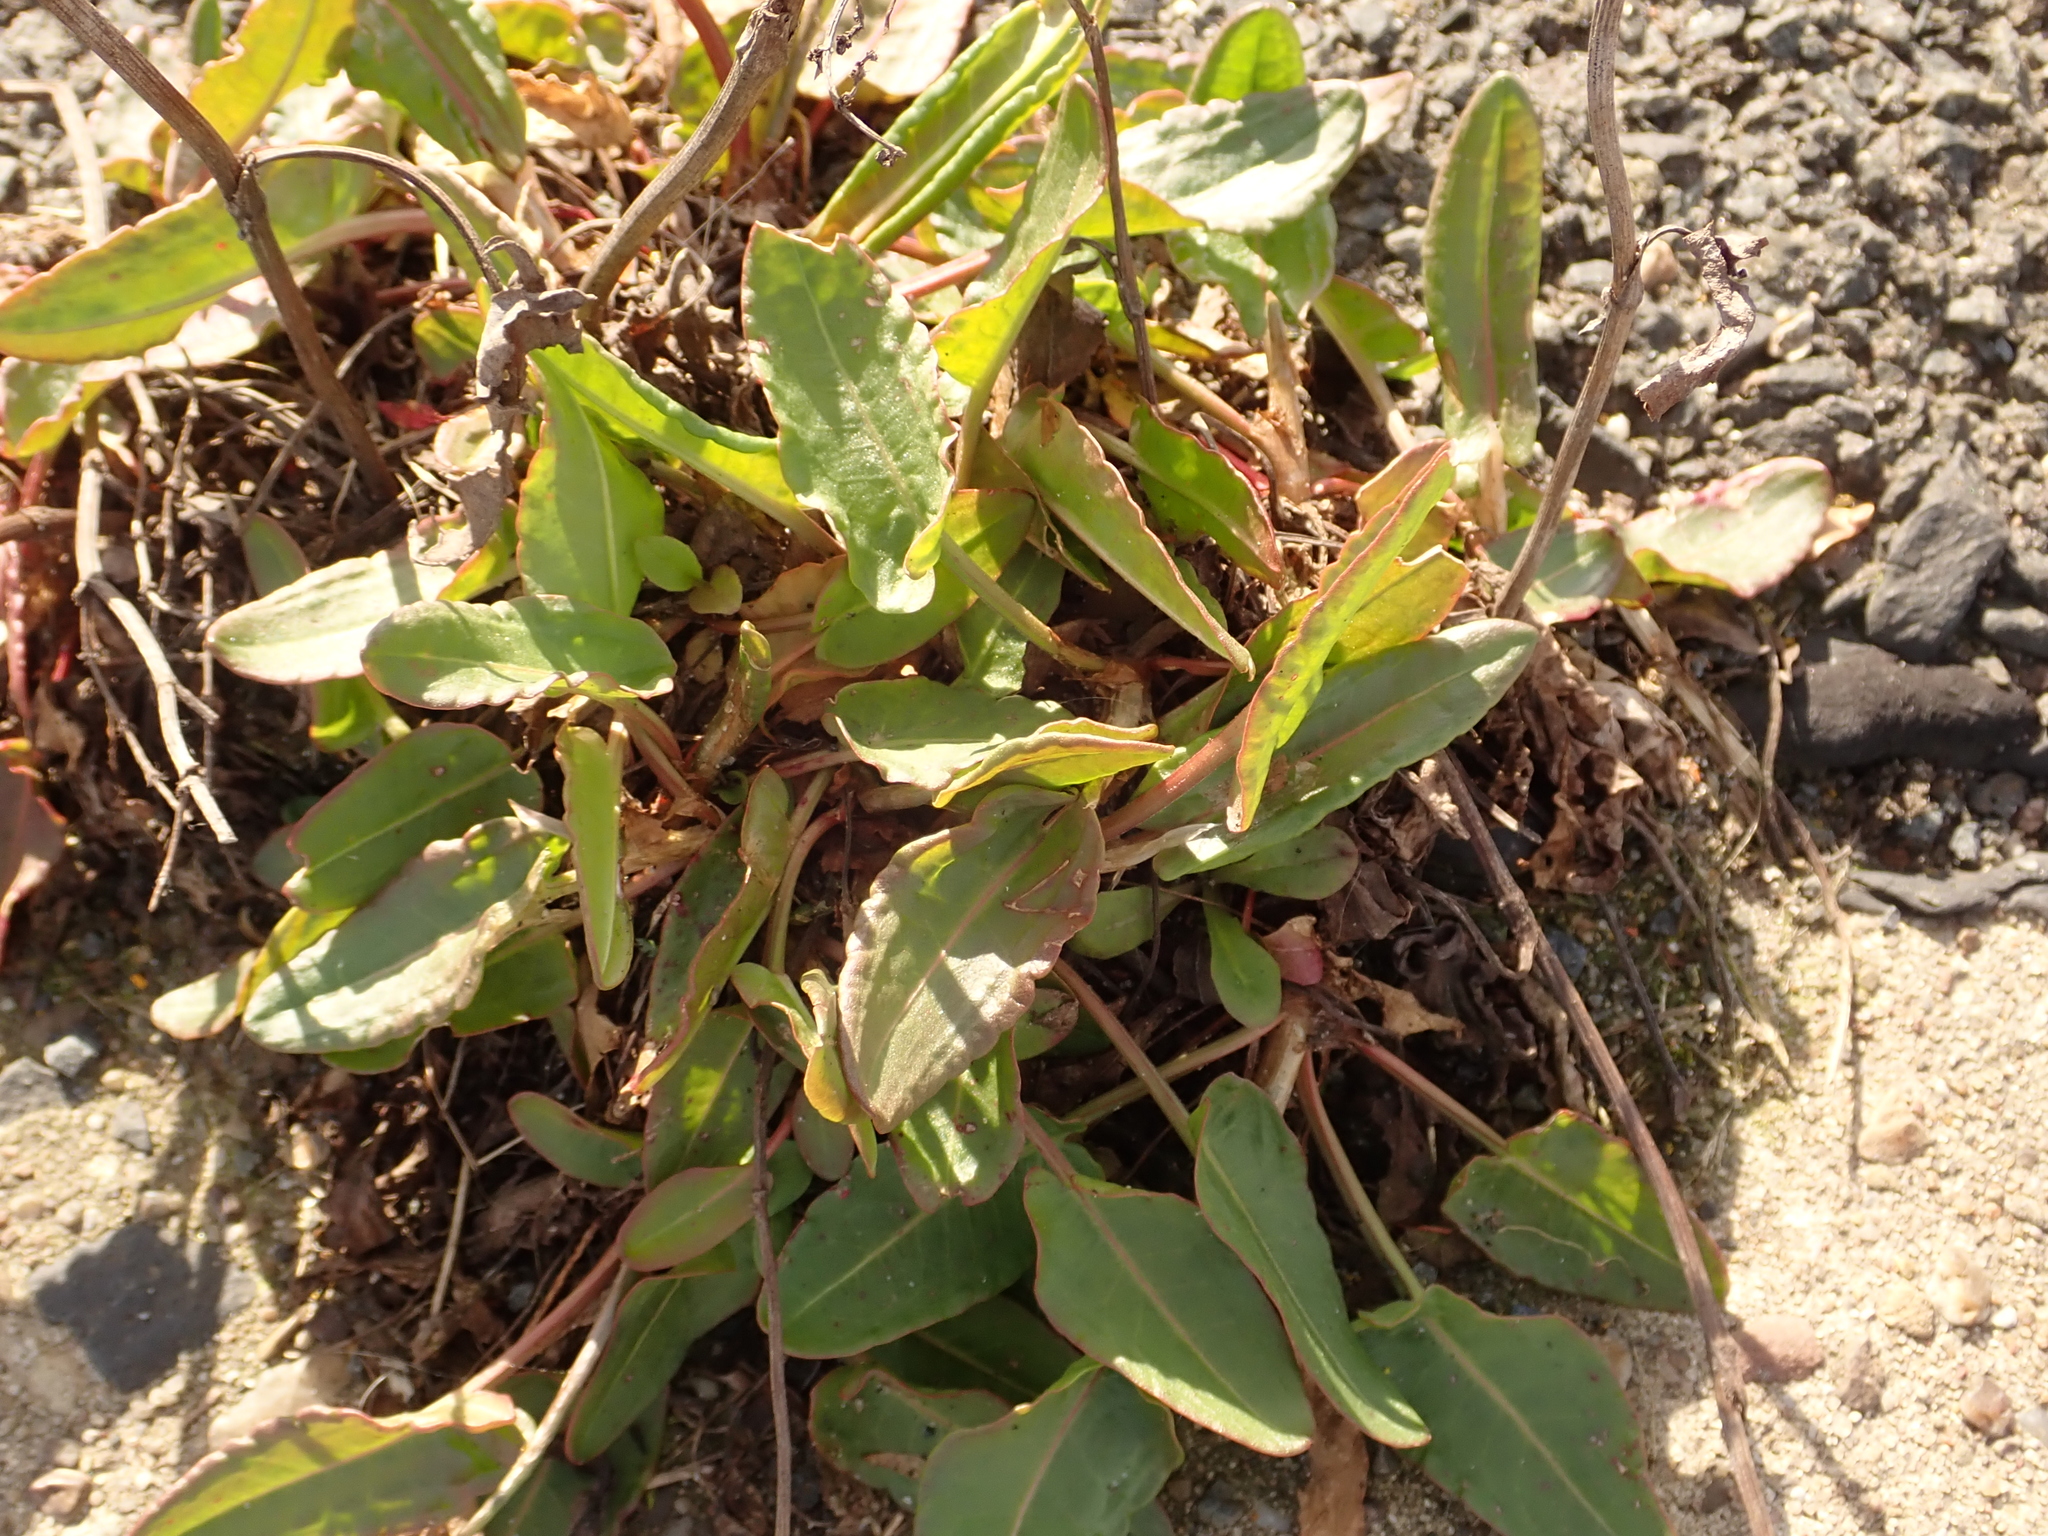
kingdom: Plantae
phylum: Tracheophyta
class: Magnoliopsida
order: Caryophyllales
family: Polygonaceae
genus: Rumex
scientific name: Rumex acetosa
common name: Garden sorrel
